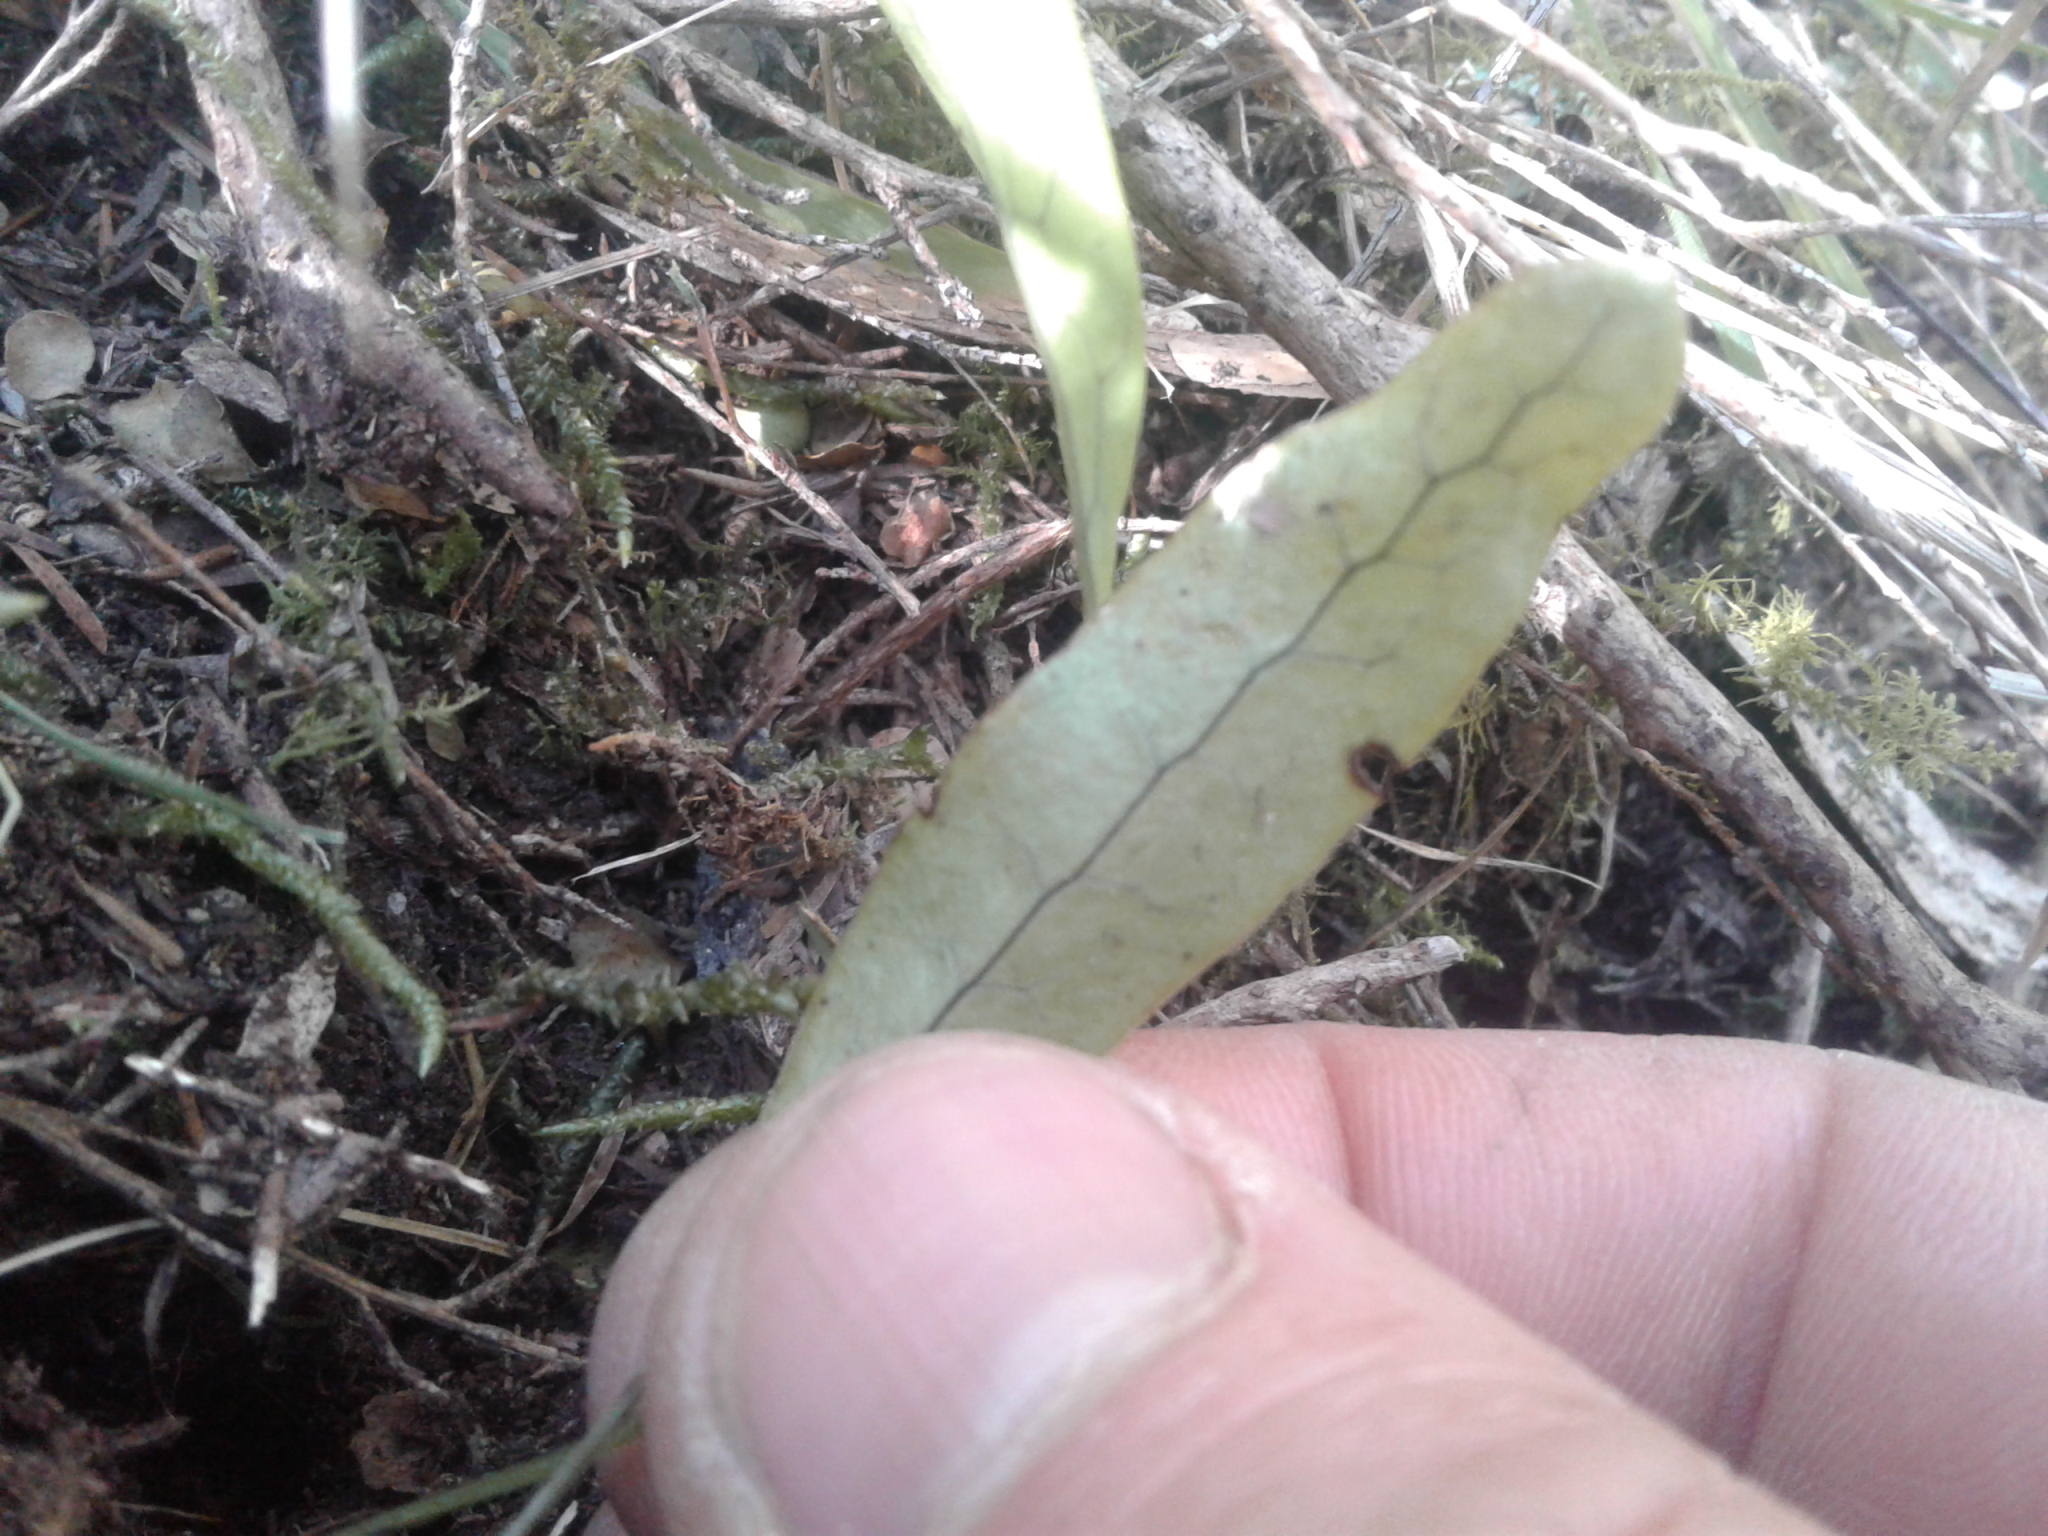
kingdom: Plantae
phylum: Tracheophyta
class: Polypodiopsida
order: Polypodiales
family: Polypodiaceae
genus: Lecanopteris
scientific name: Lecanopteris pustulata
